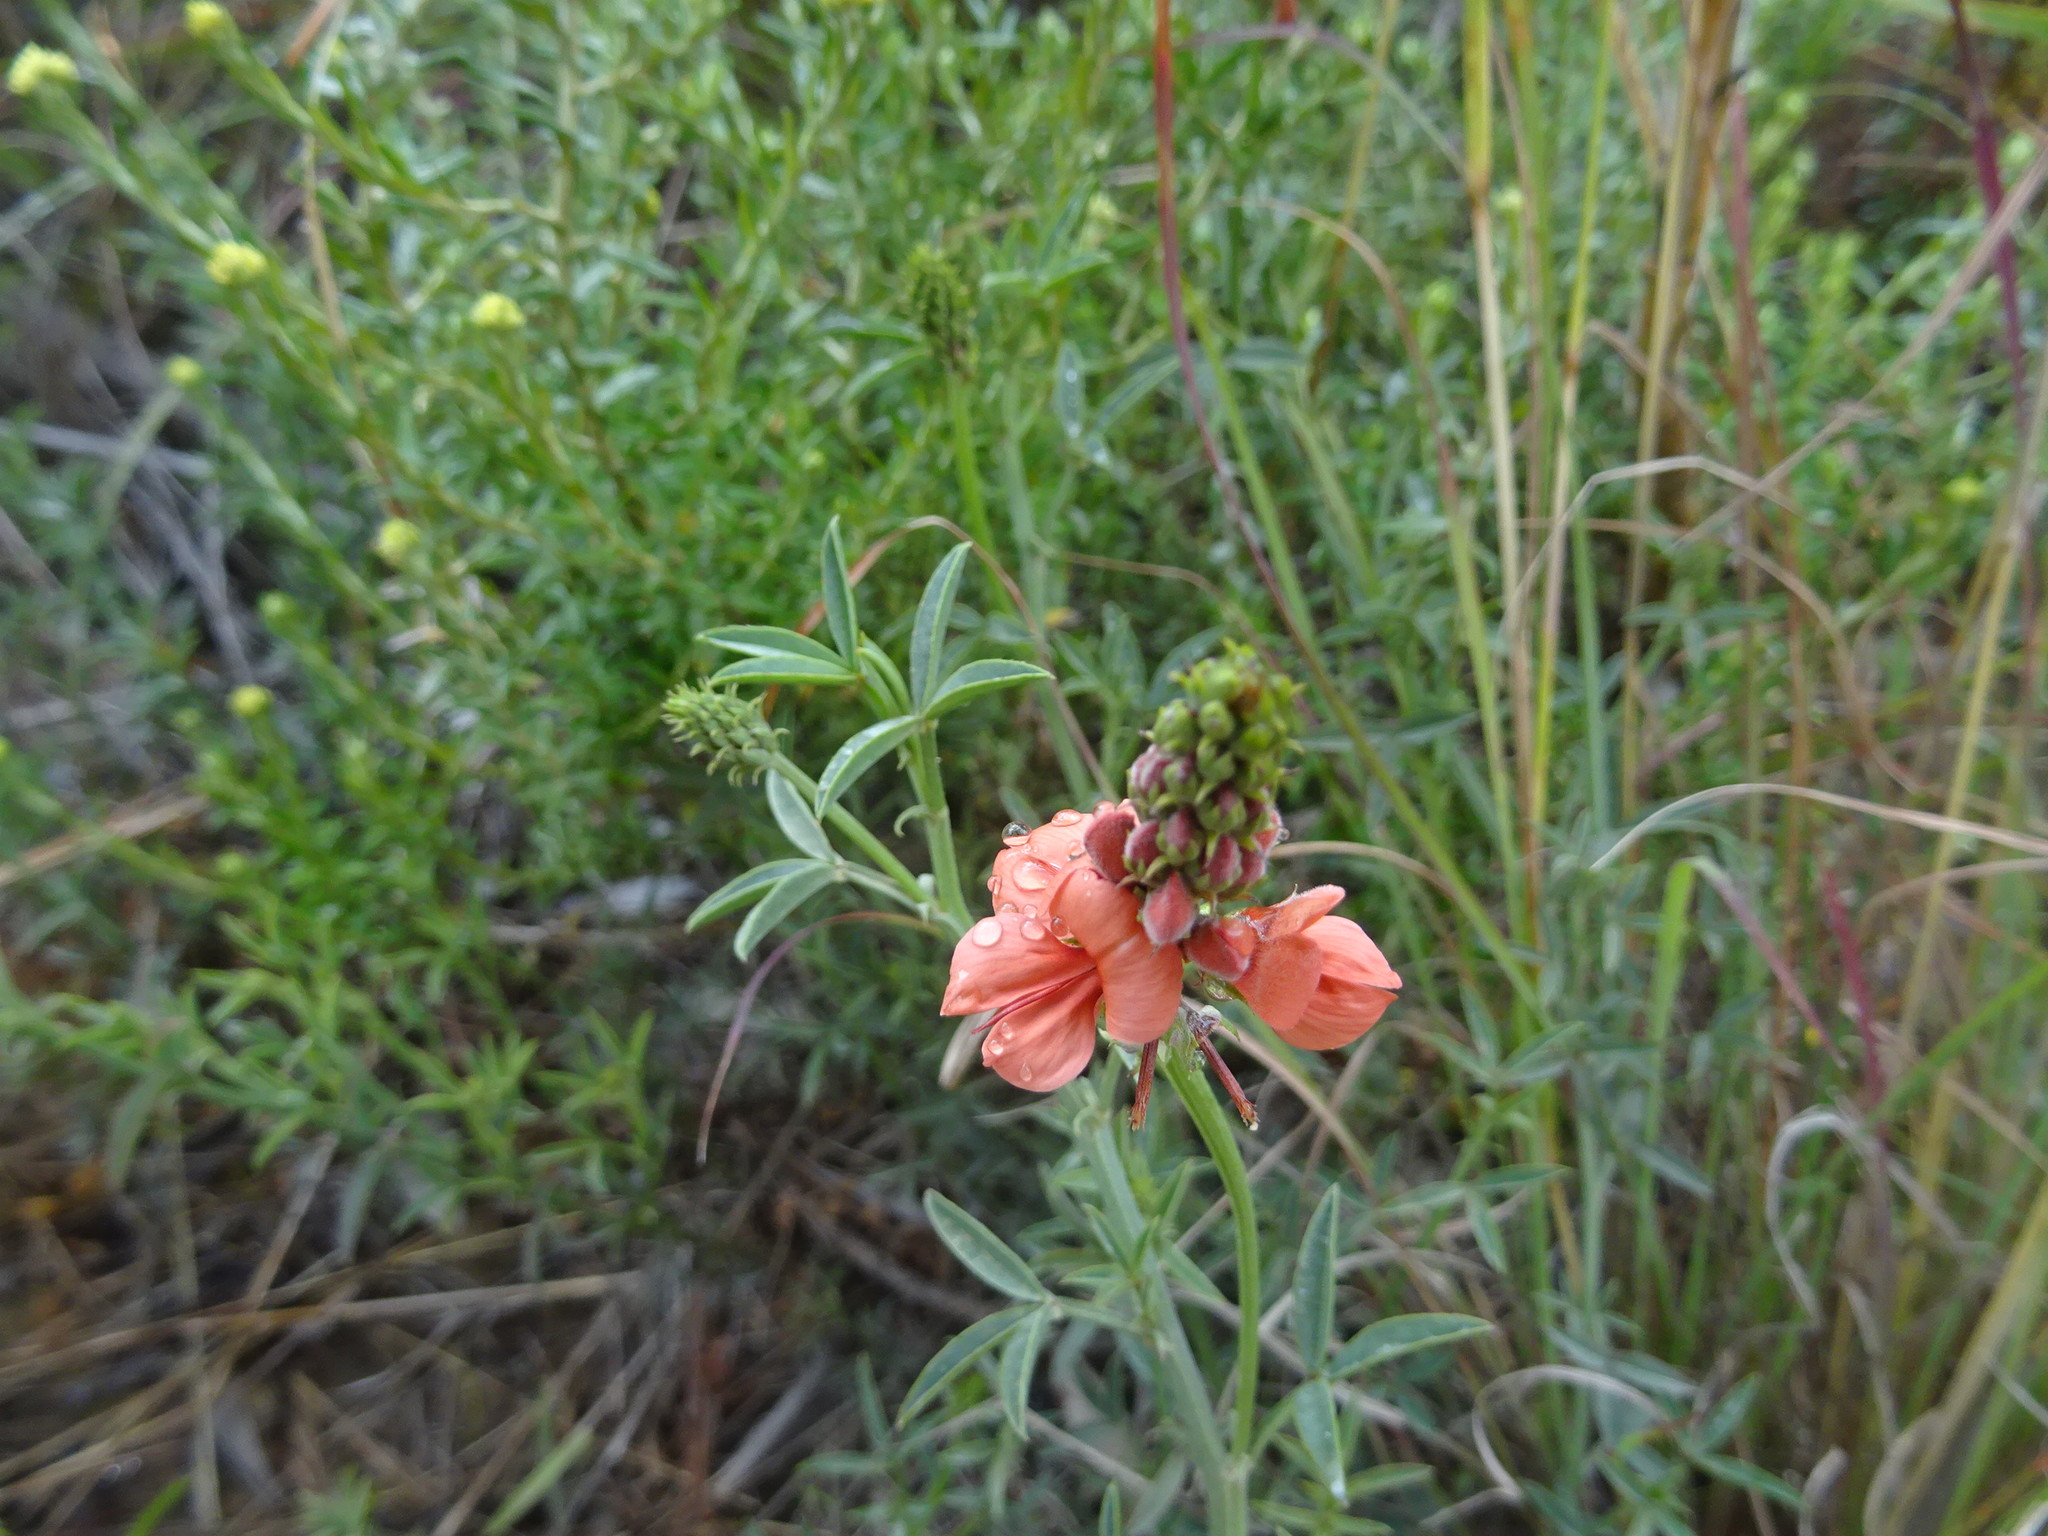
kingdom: Plantae
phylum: Tracheophyta
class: Magnoliopsida
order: Fabales
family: Fabaceae
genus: Indigofera
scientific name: Indigofera complanata
